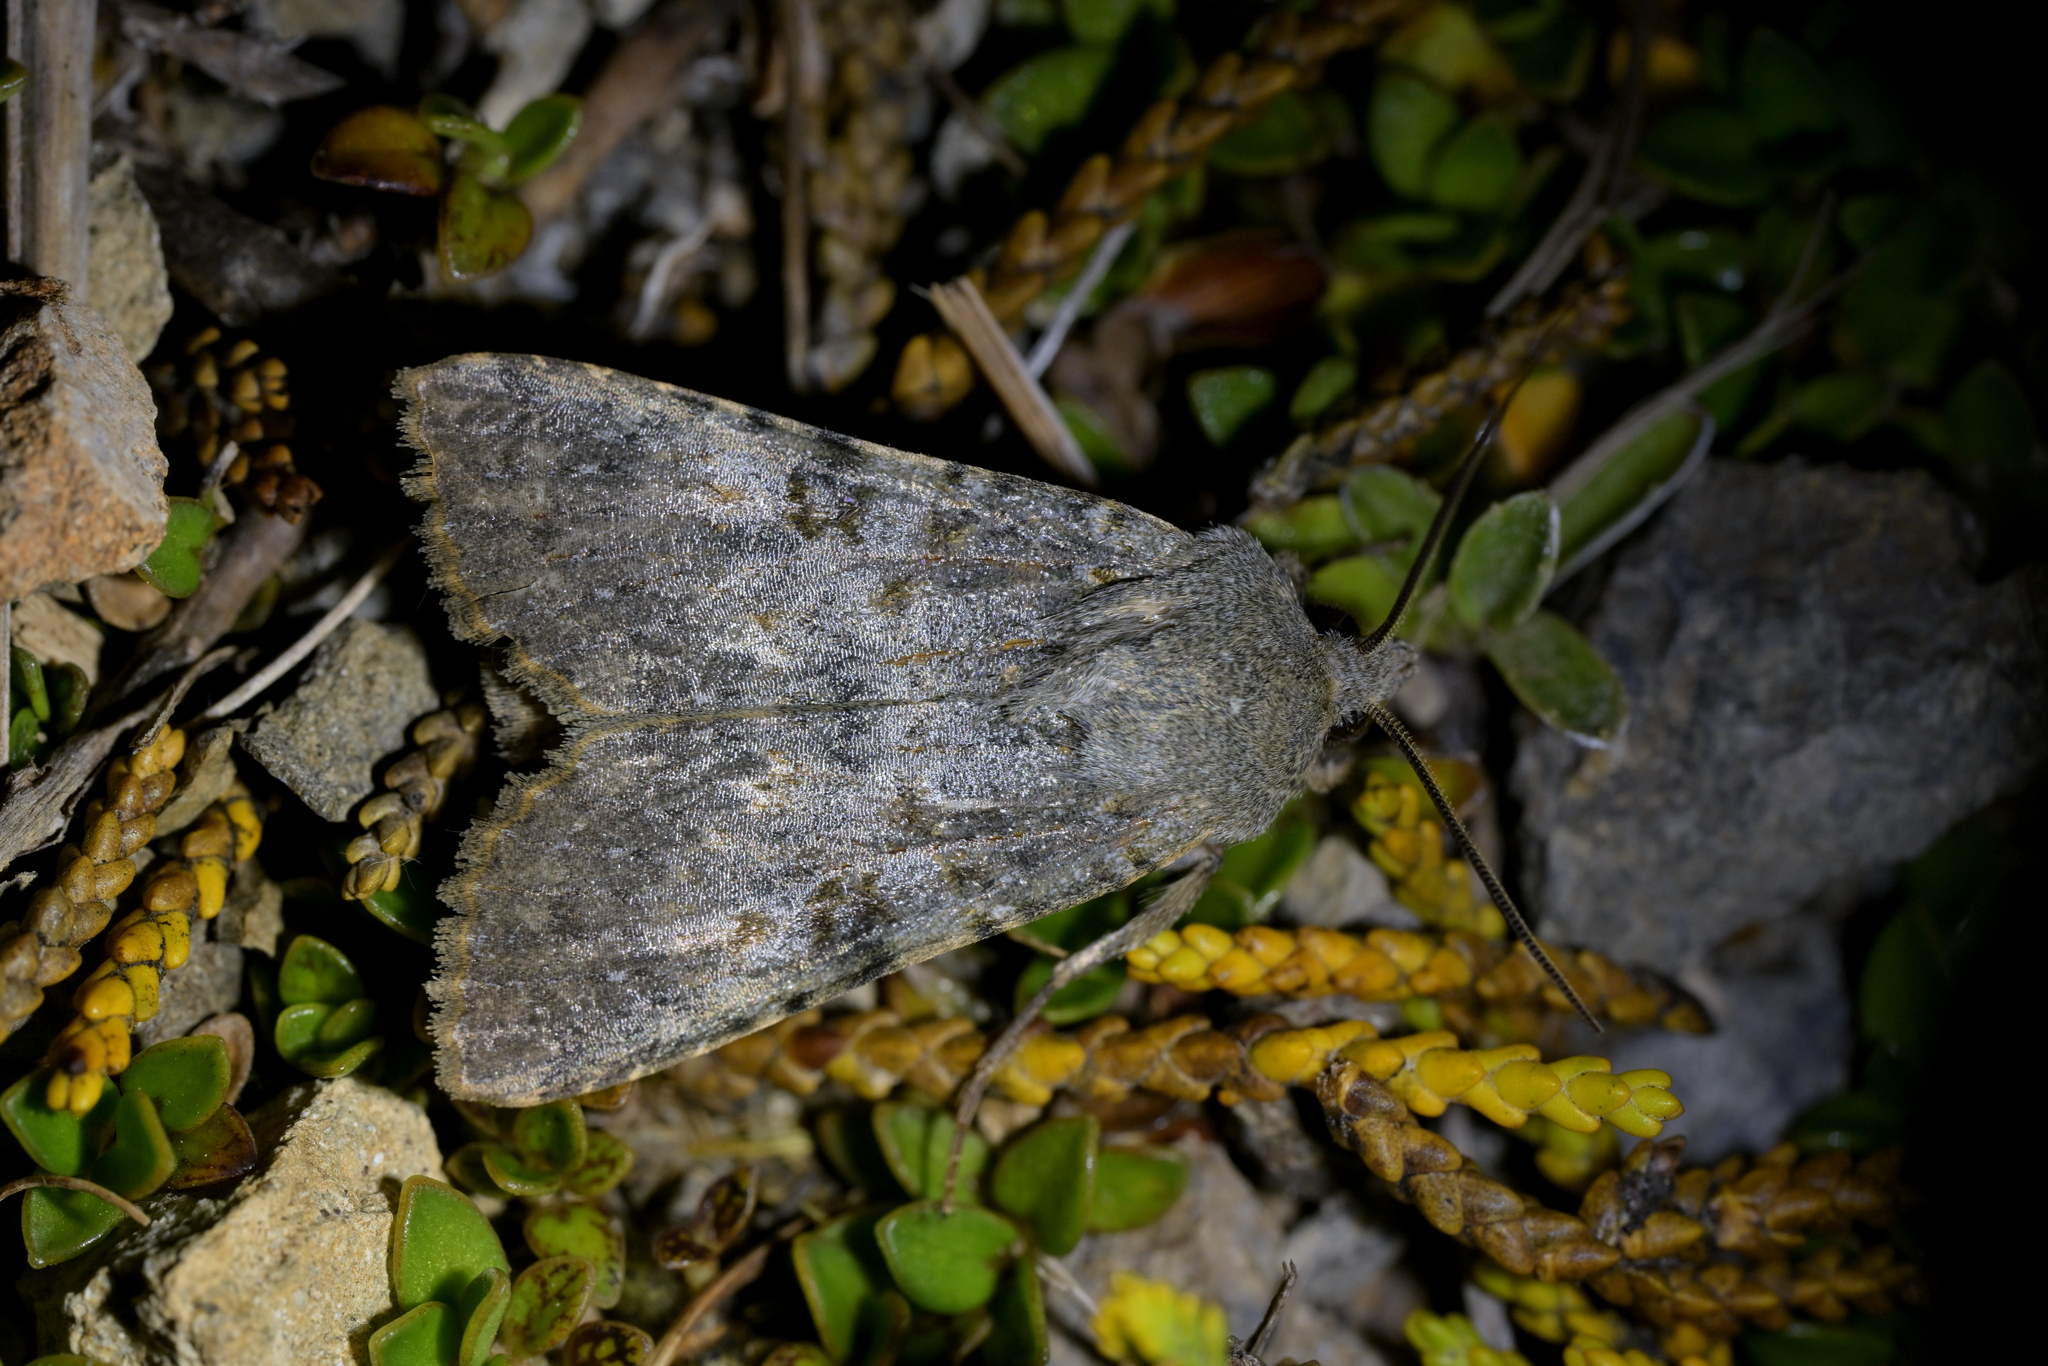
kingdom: Animalia
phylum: Arthropoda
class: Insecta
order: Lepidoptera
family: Noctuidae
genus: Ichneutica
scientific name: Ichneutica
